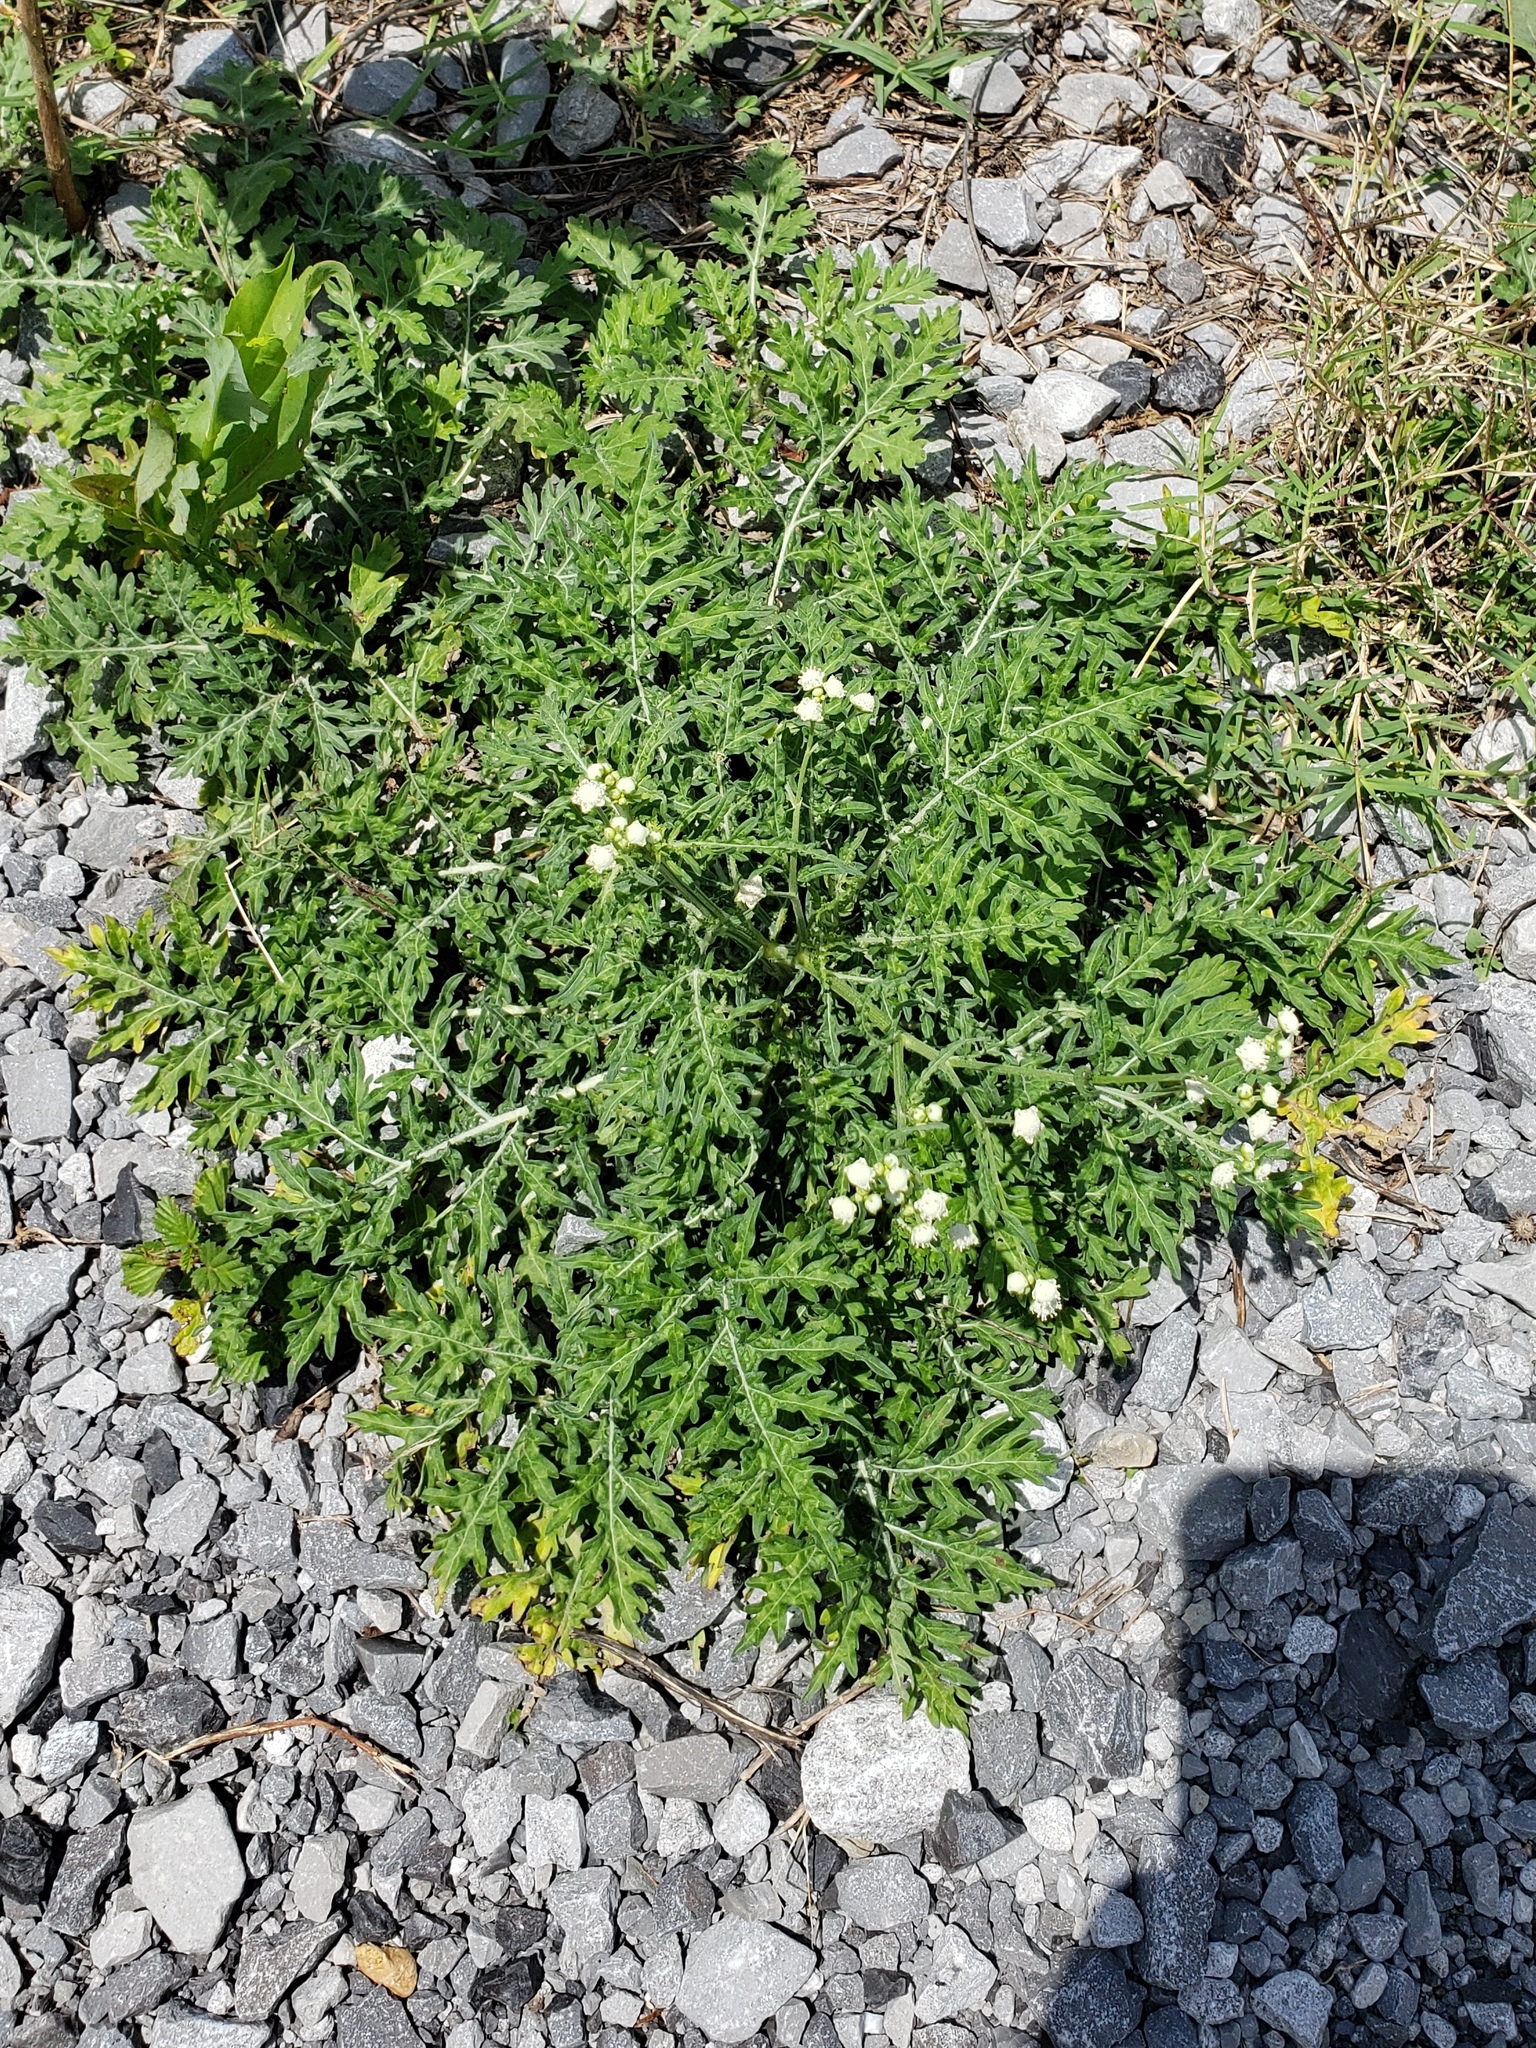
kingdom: Plantae
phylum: Tracheophyta
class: Magnoliopsida
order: Asterales
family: Asteraceae
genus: Parthenium
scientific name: Parthenium hysterophorus
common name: Santa maria feverfew
